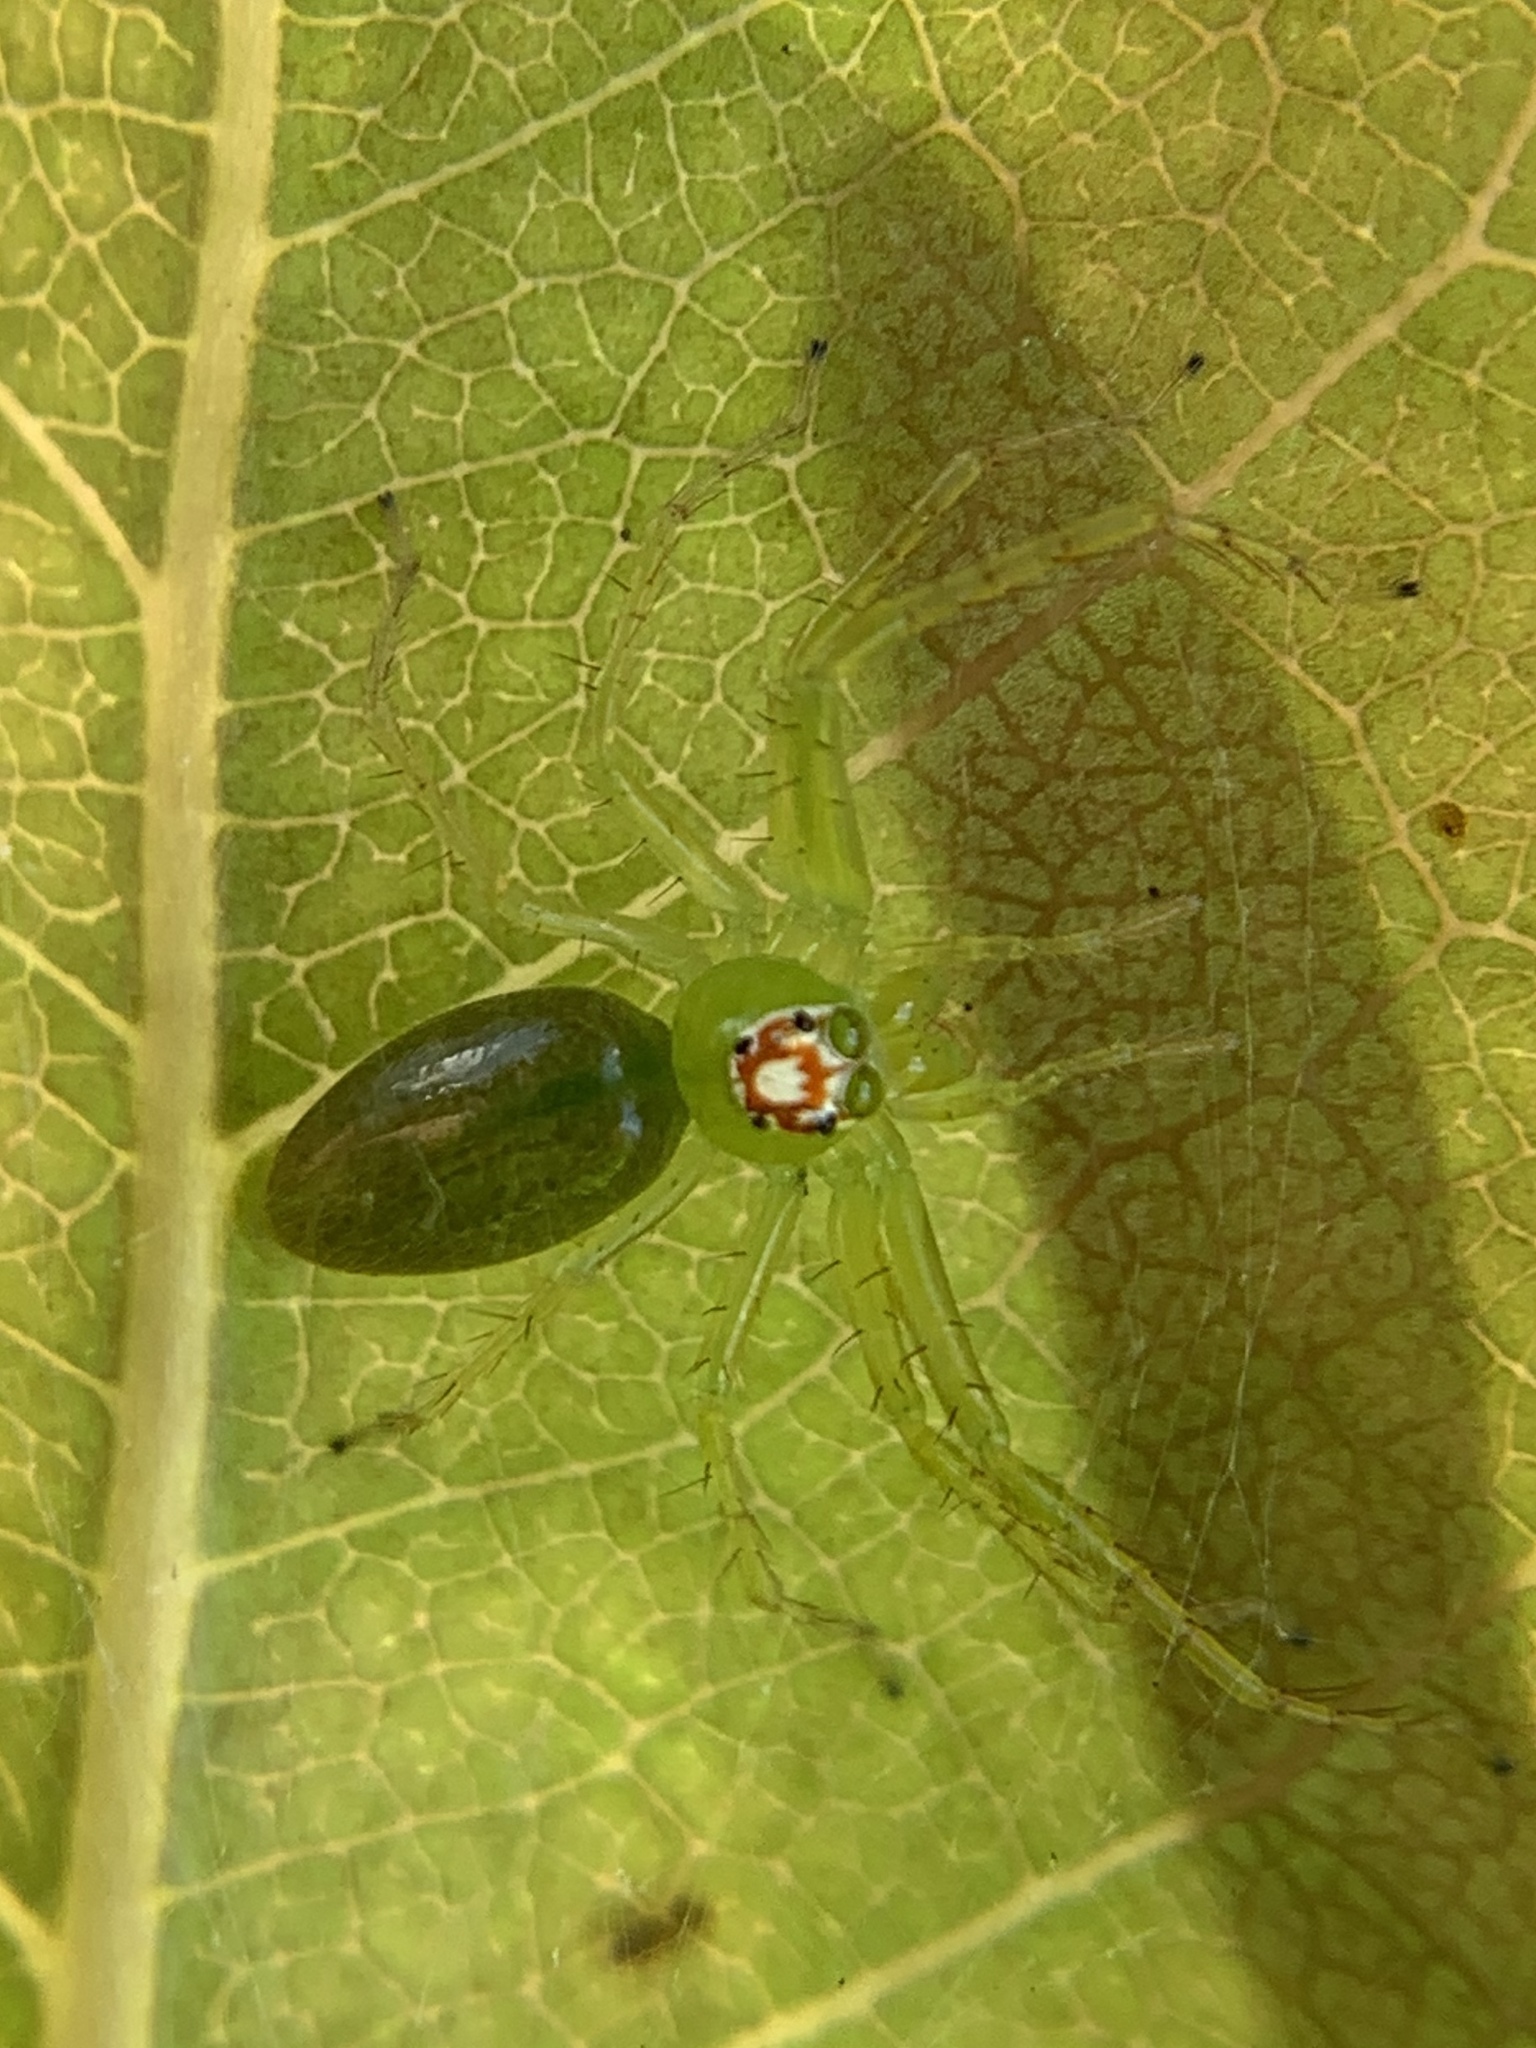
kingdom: Animalia
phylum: Arthropoda
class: Arachnida
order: Araneae
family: Salticidae
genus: Lyssomanes
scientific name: Lyssomanes viridis
